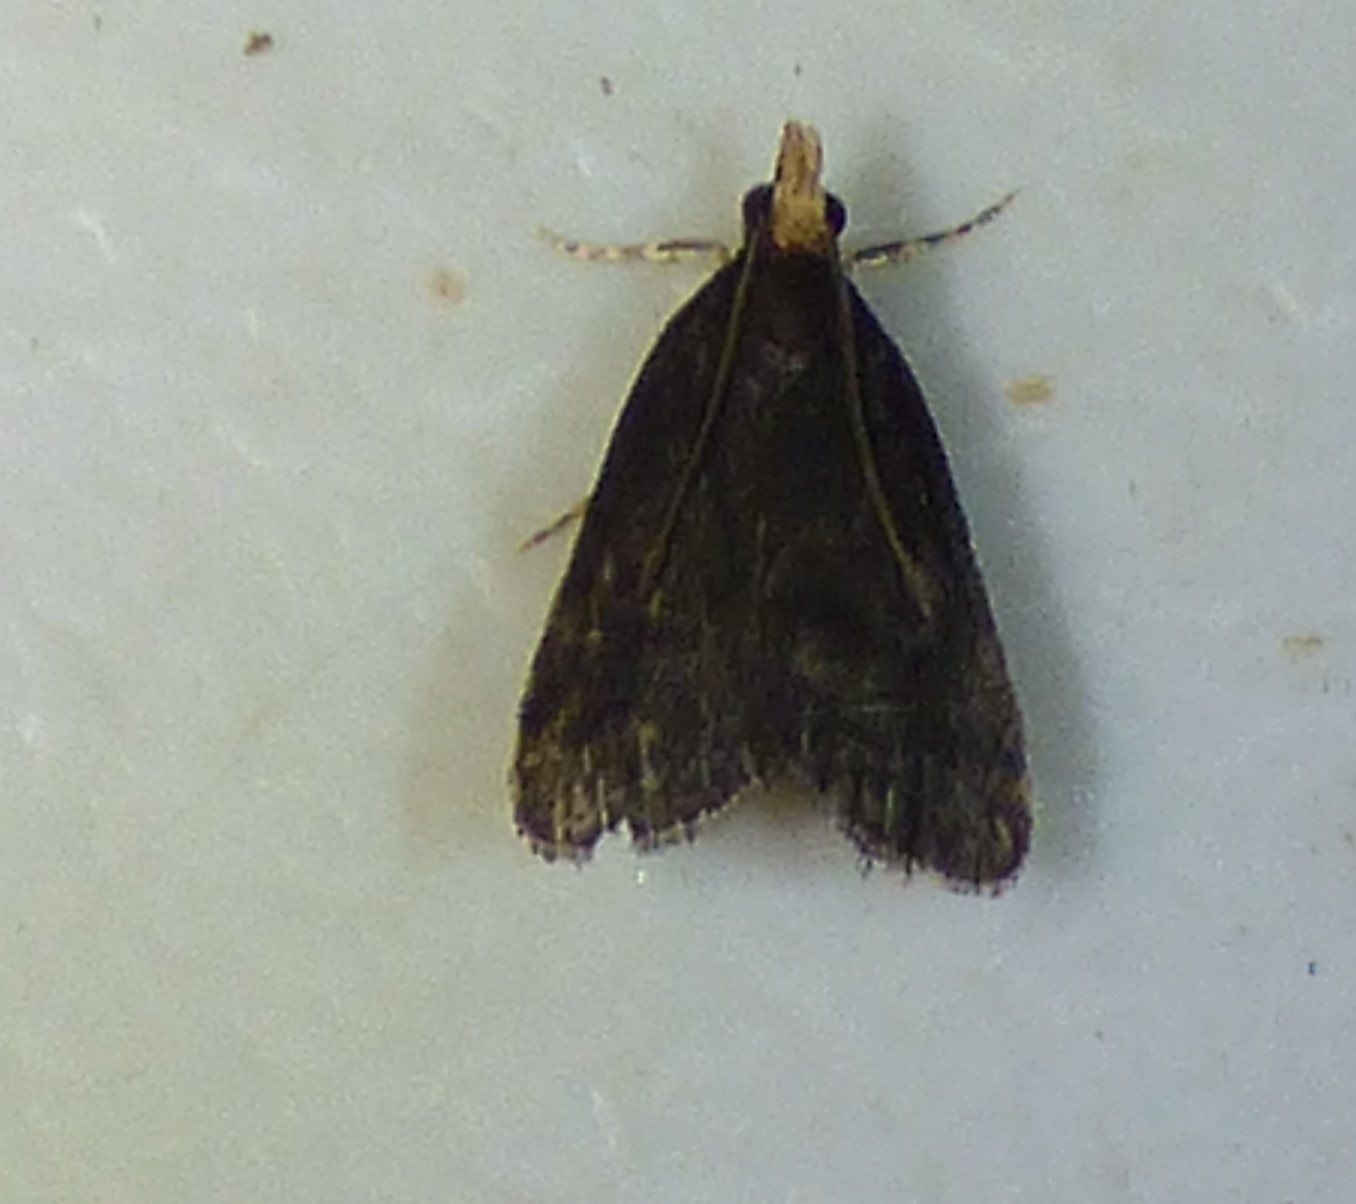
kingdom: Animalia
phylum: Arthropoda
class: Insecta
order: Lepidoptera
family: Crambidae
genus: Pyrausta
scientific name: Pyrausta merrickalis
